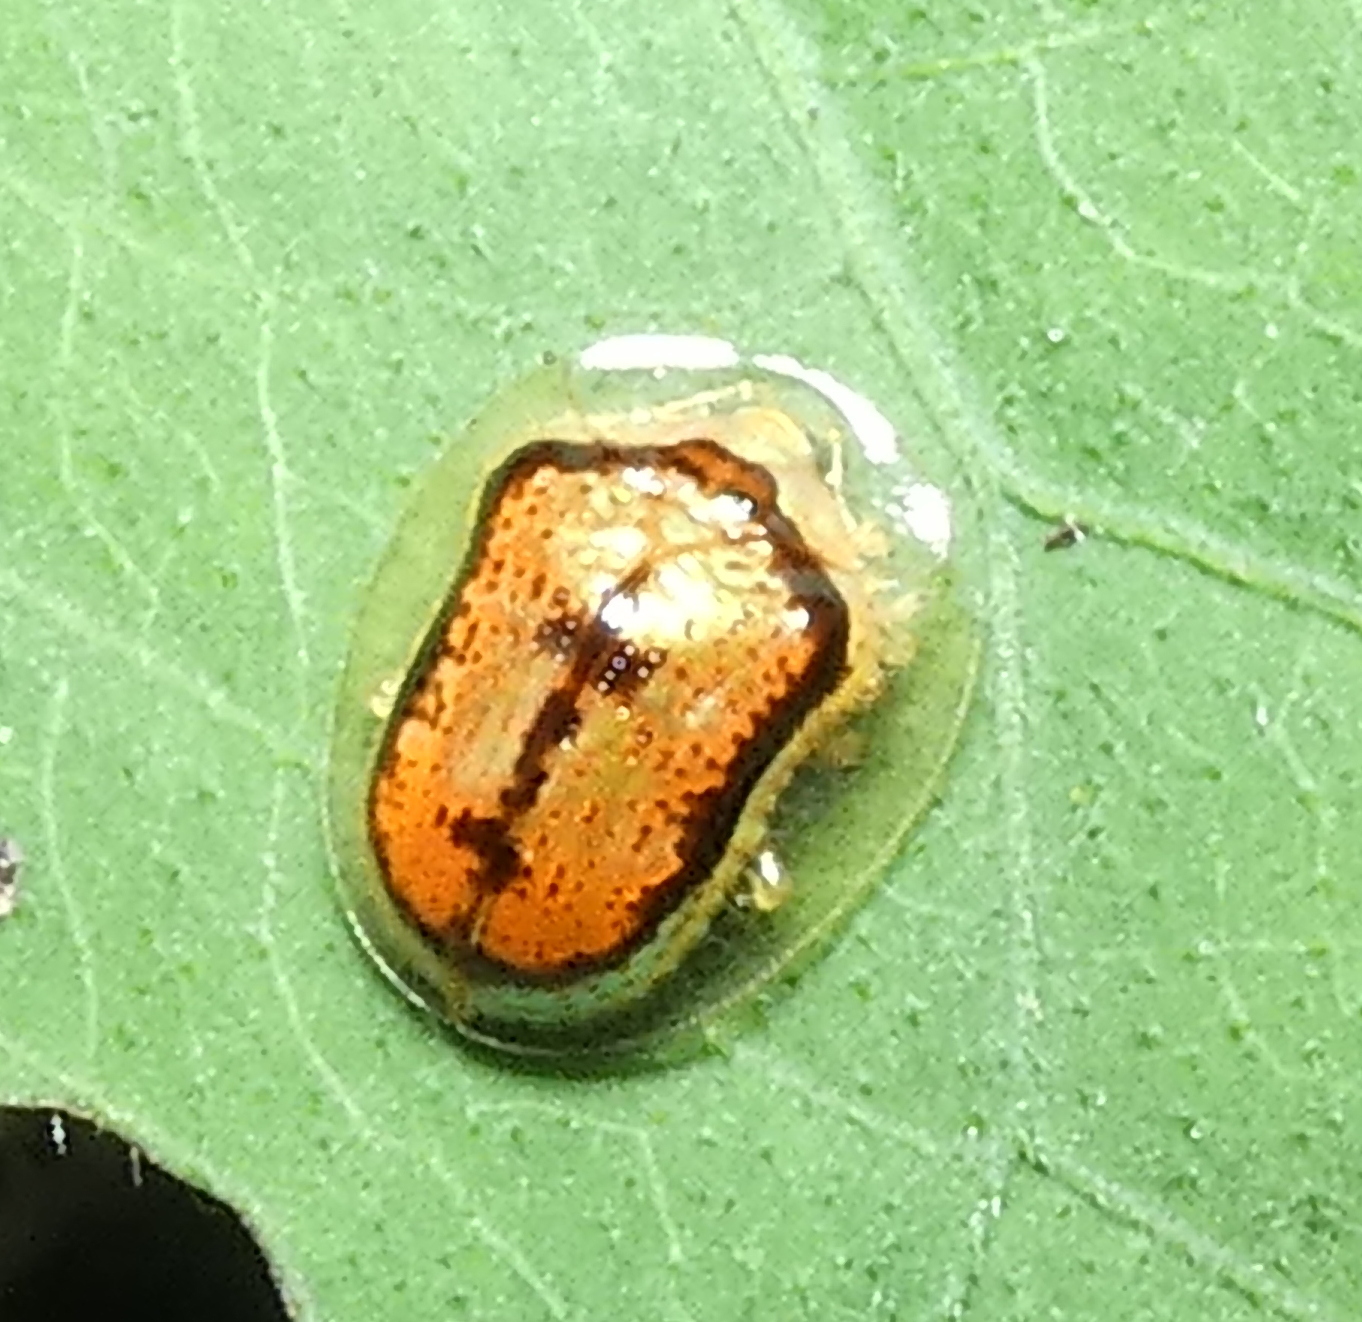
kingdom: Animalia
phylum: Arthropoda
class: Insecta
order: Coleoptera
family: Chrysomelidae
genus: Microctenochira
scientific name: Microctenochira quadrata
